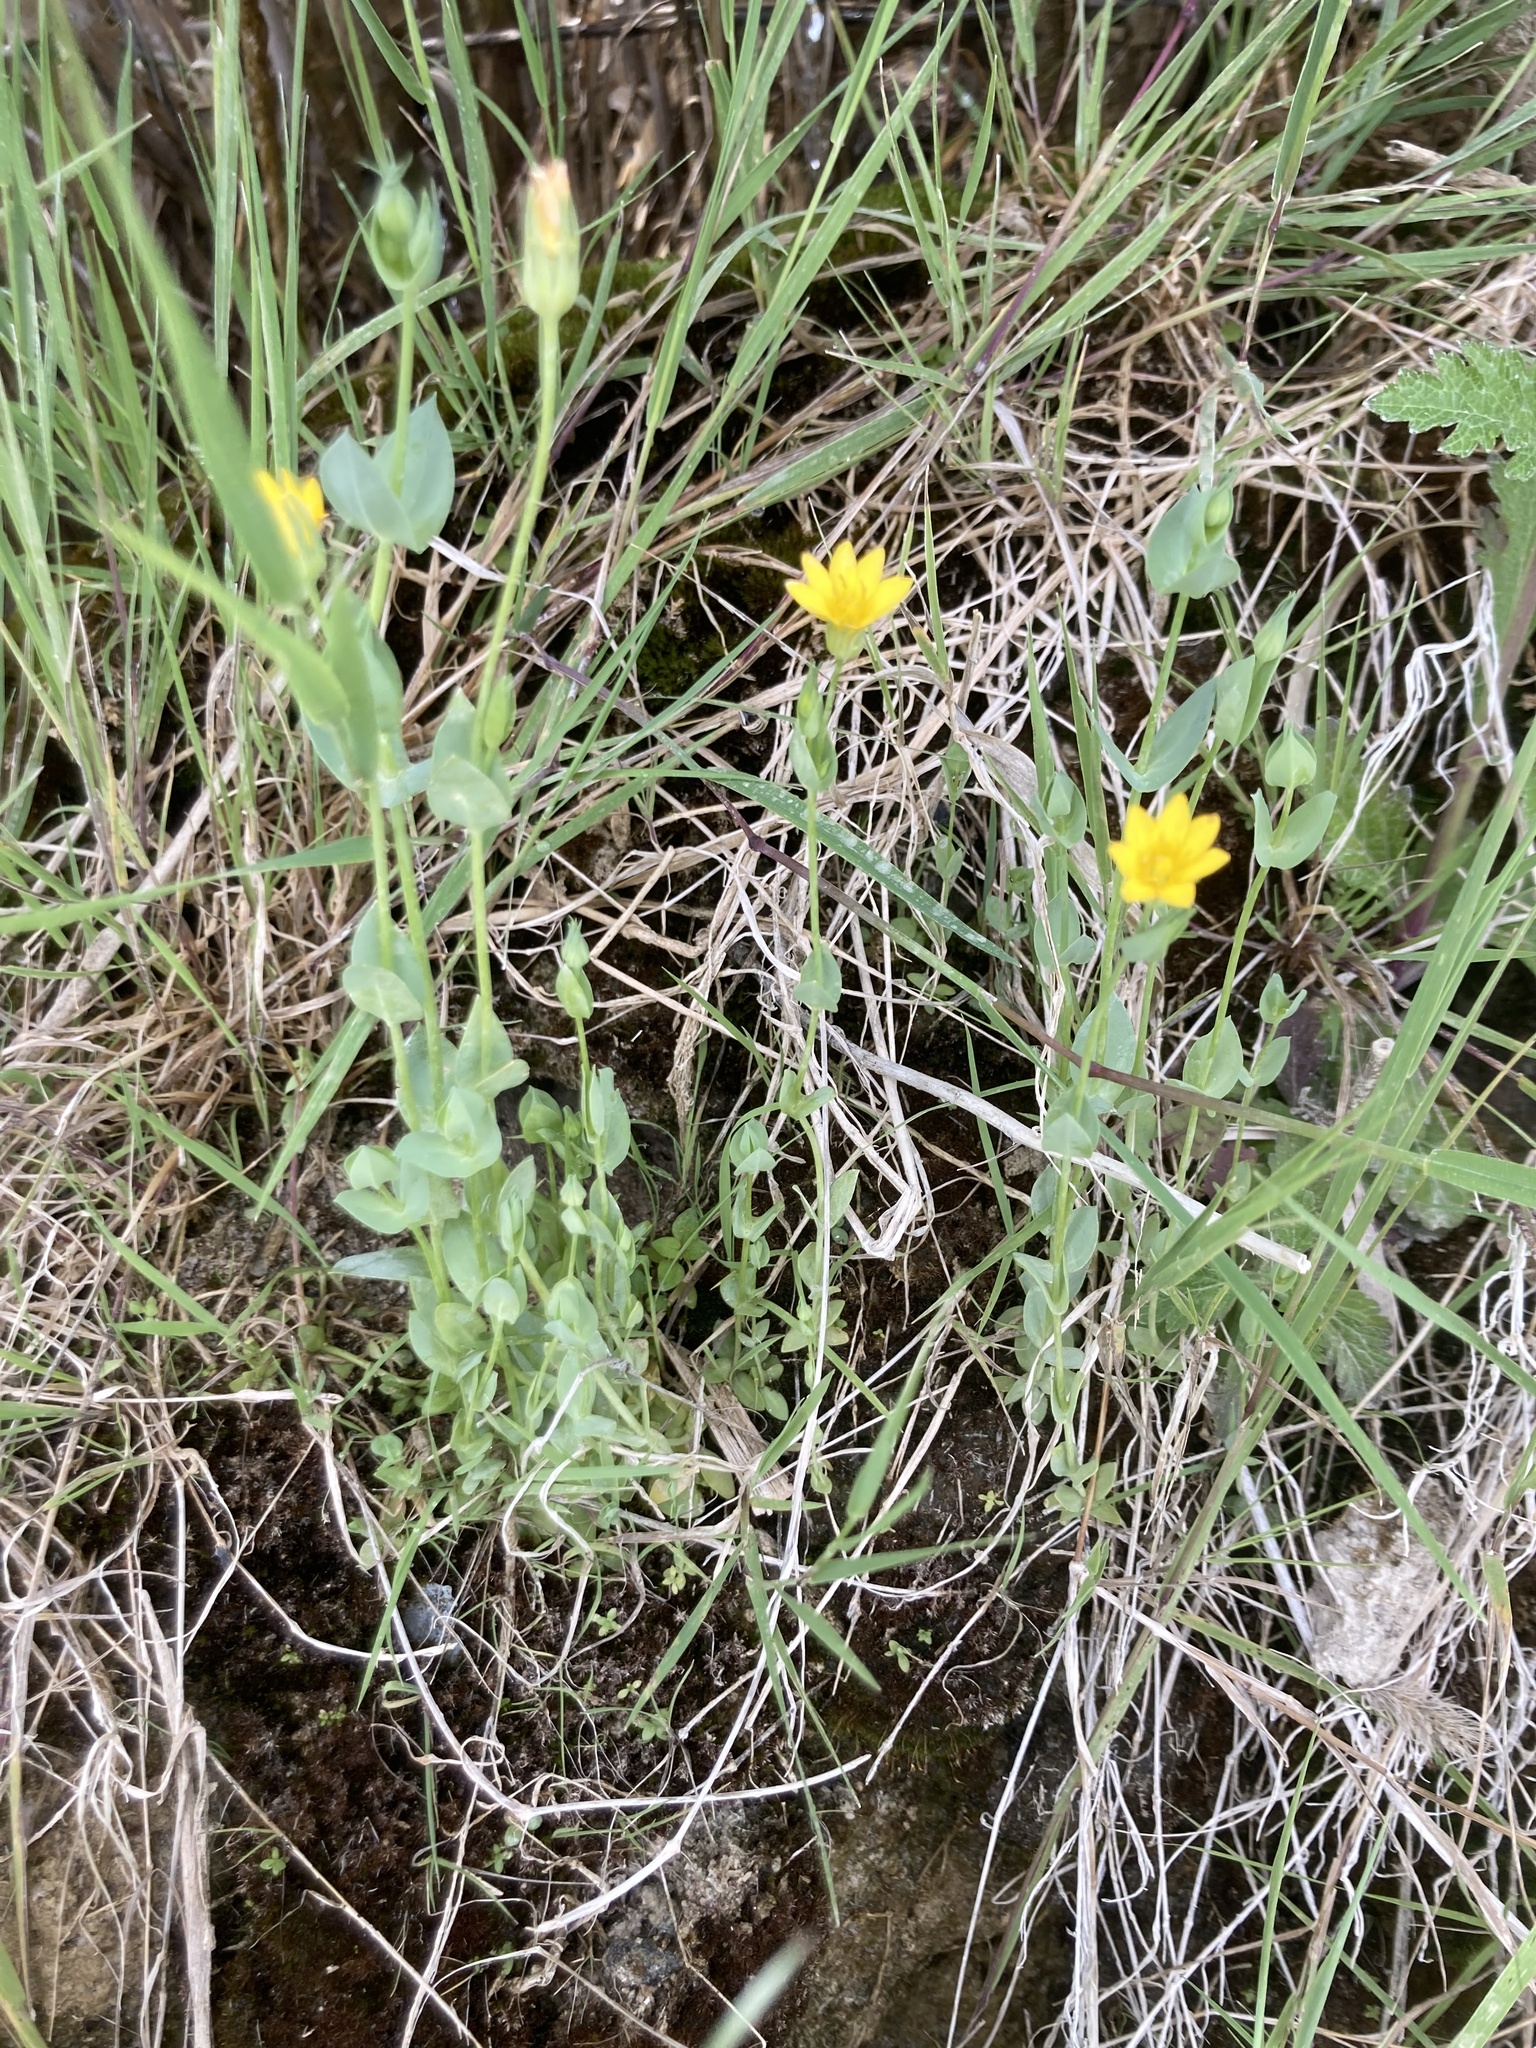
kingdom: Plantae
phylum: Tracheophyta
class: Magnoliopsida
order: Gentianales
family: Gentianaceae
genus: Blackstonia
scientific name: Blackstonia perfoliata
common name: Yellow-wort
